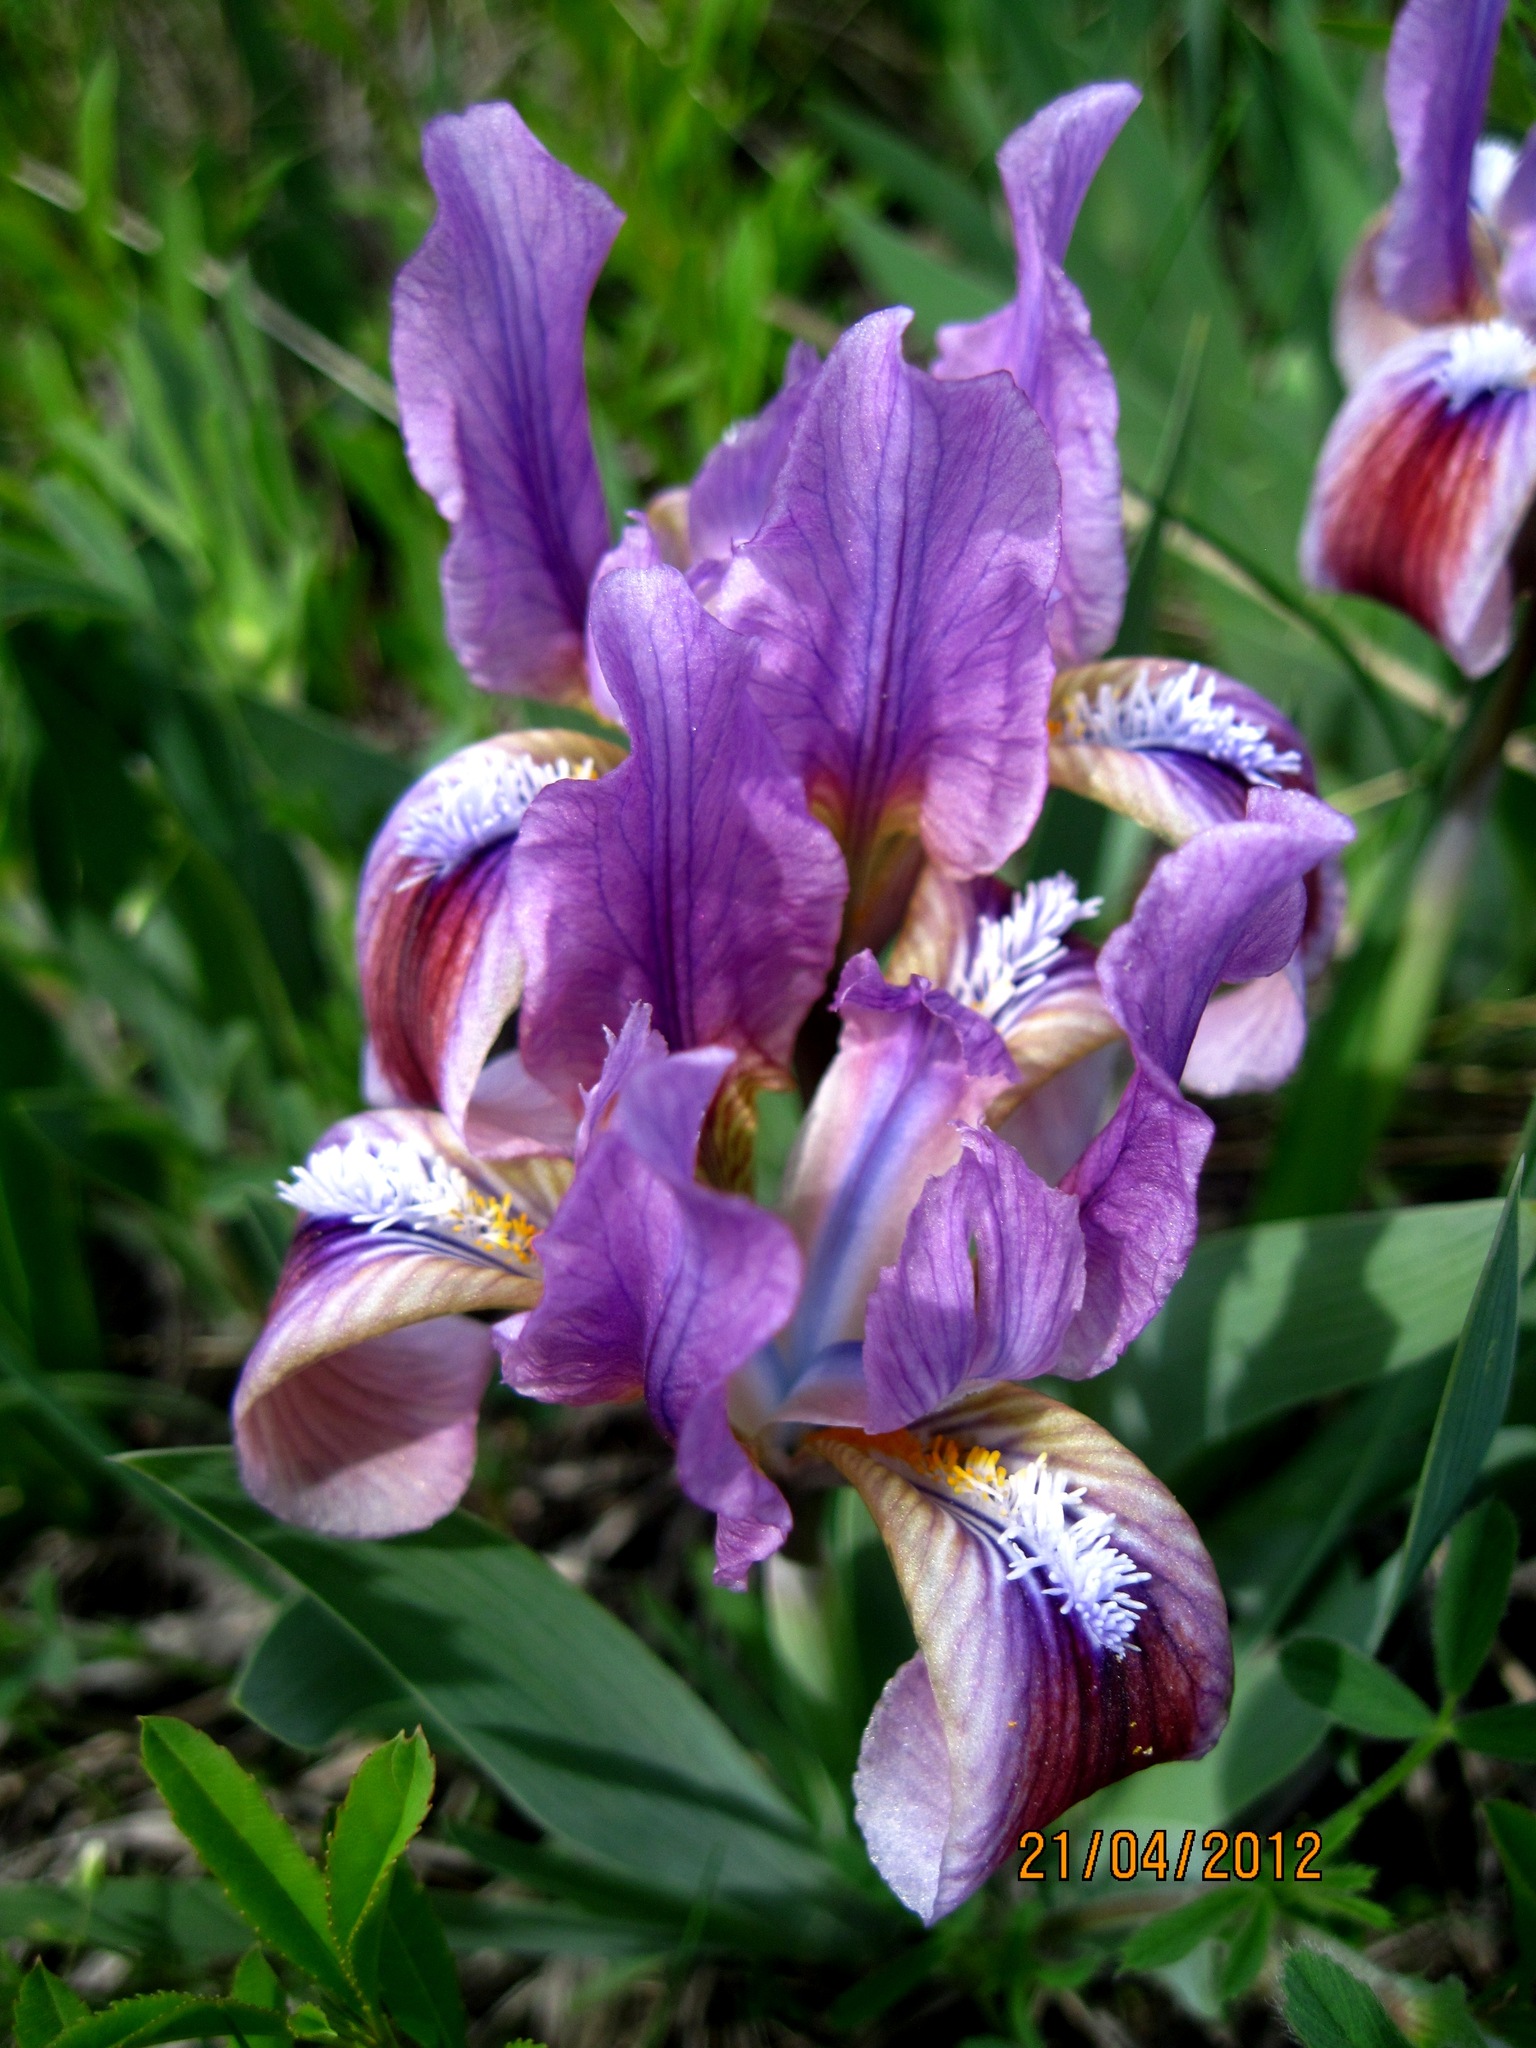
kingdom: Plantae
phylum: Tracheophyta
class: Liliopsida
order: Asparagales
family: Iridaceae
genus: Iris
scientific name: Iris pumila
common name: Dwarf iris
